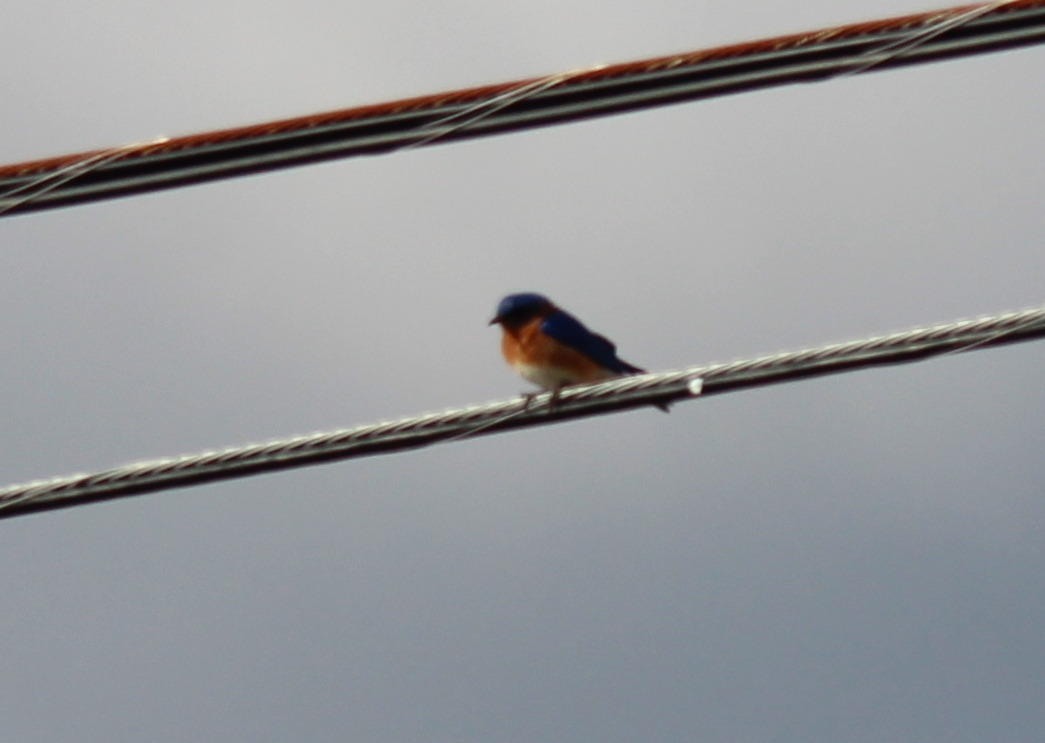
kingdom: Animalia
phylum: Chordata
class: Aves
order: Passeriformes
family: Turdidae
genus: Sialia
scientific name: Sialia sialis
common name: Eastern bluebird
